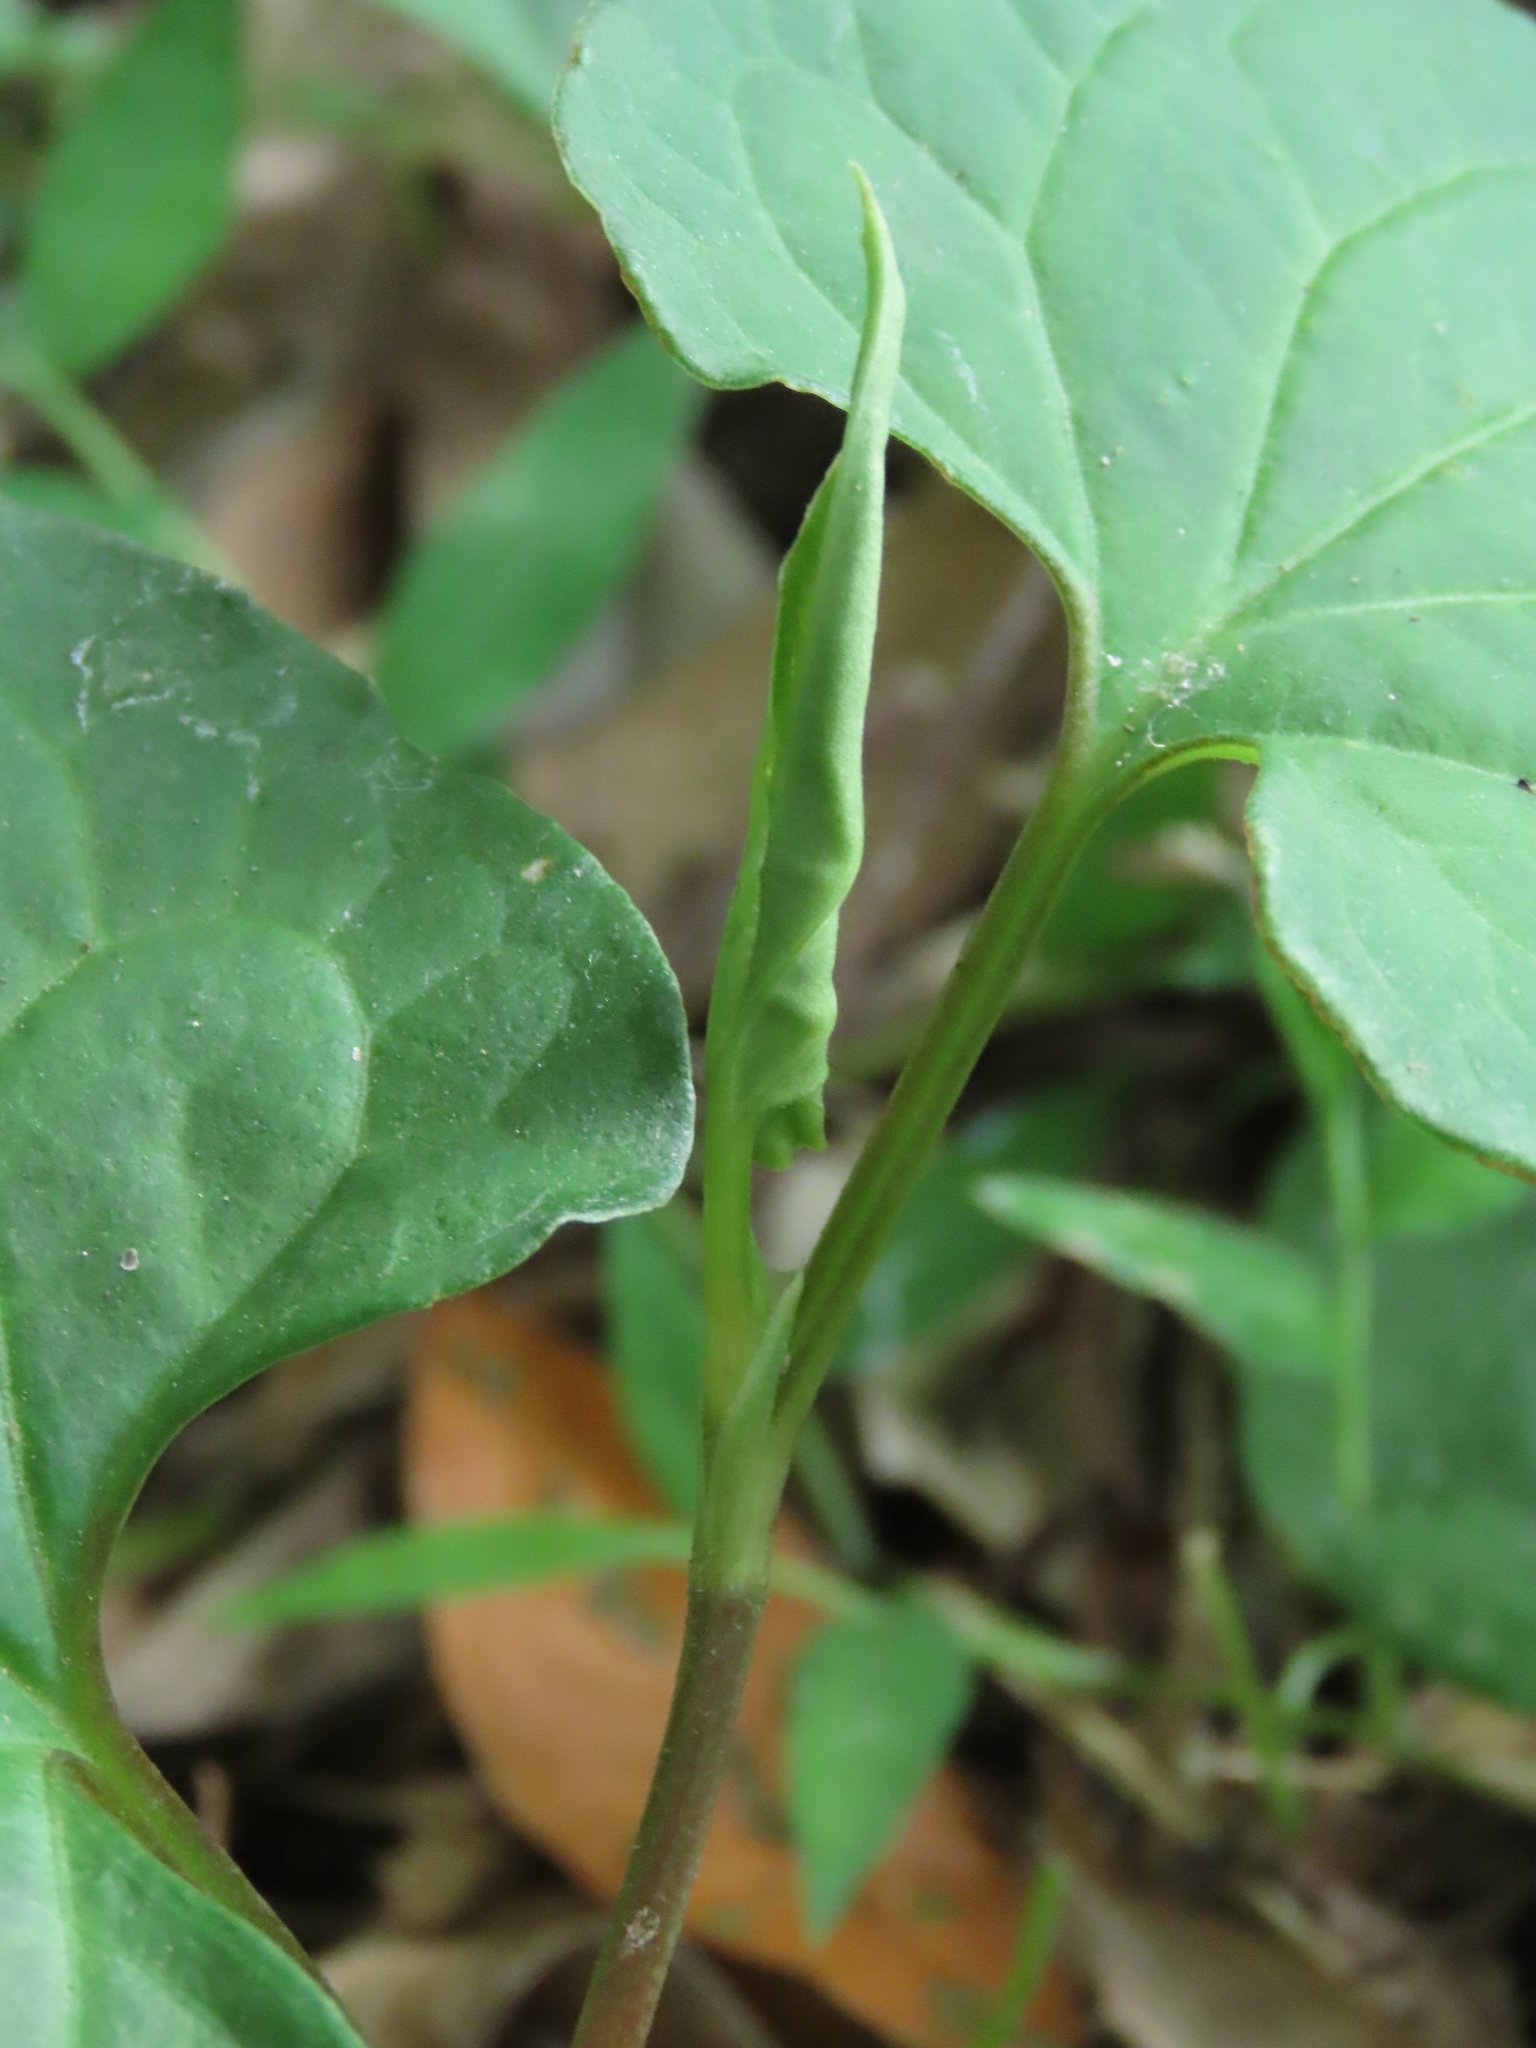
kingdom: Plantae
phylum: Tracheophyta
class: Magnoliopsida
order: Piperales
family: Saururaceae
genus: Houttuynia
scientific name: Houttuynia cordata
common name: Chameleon
